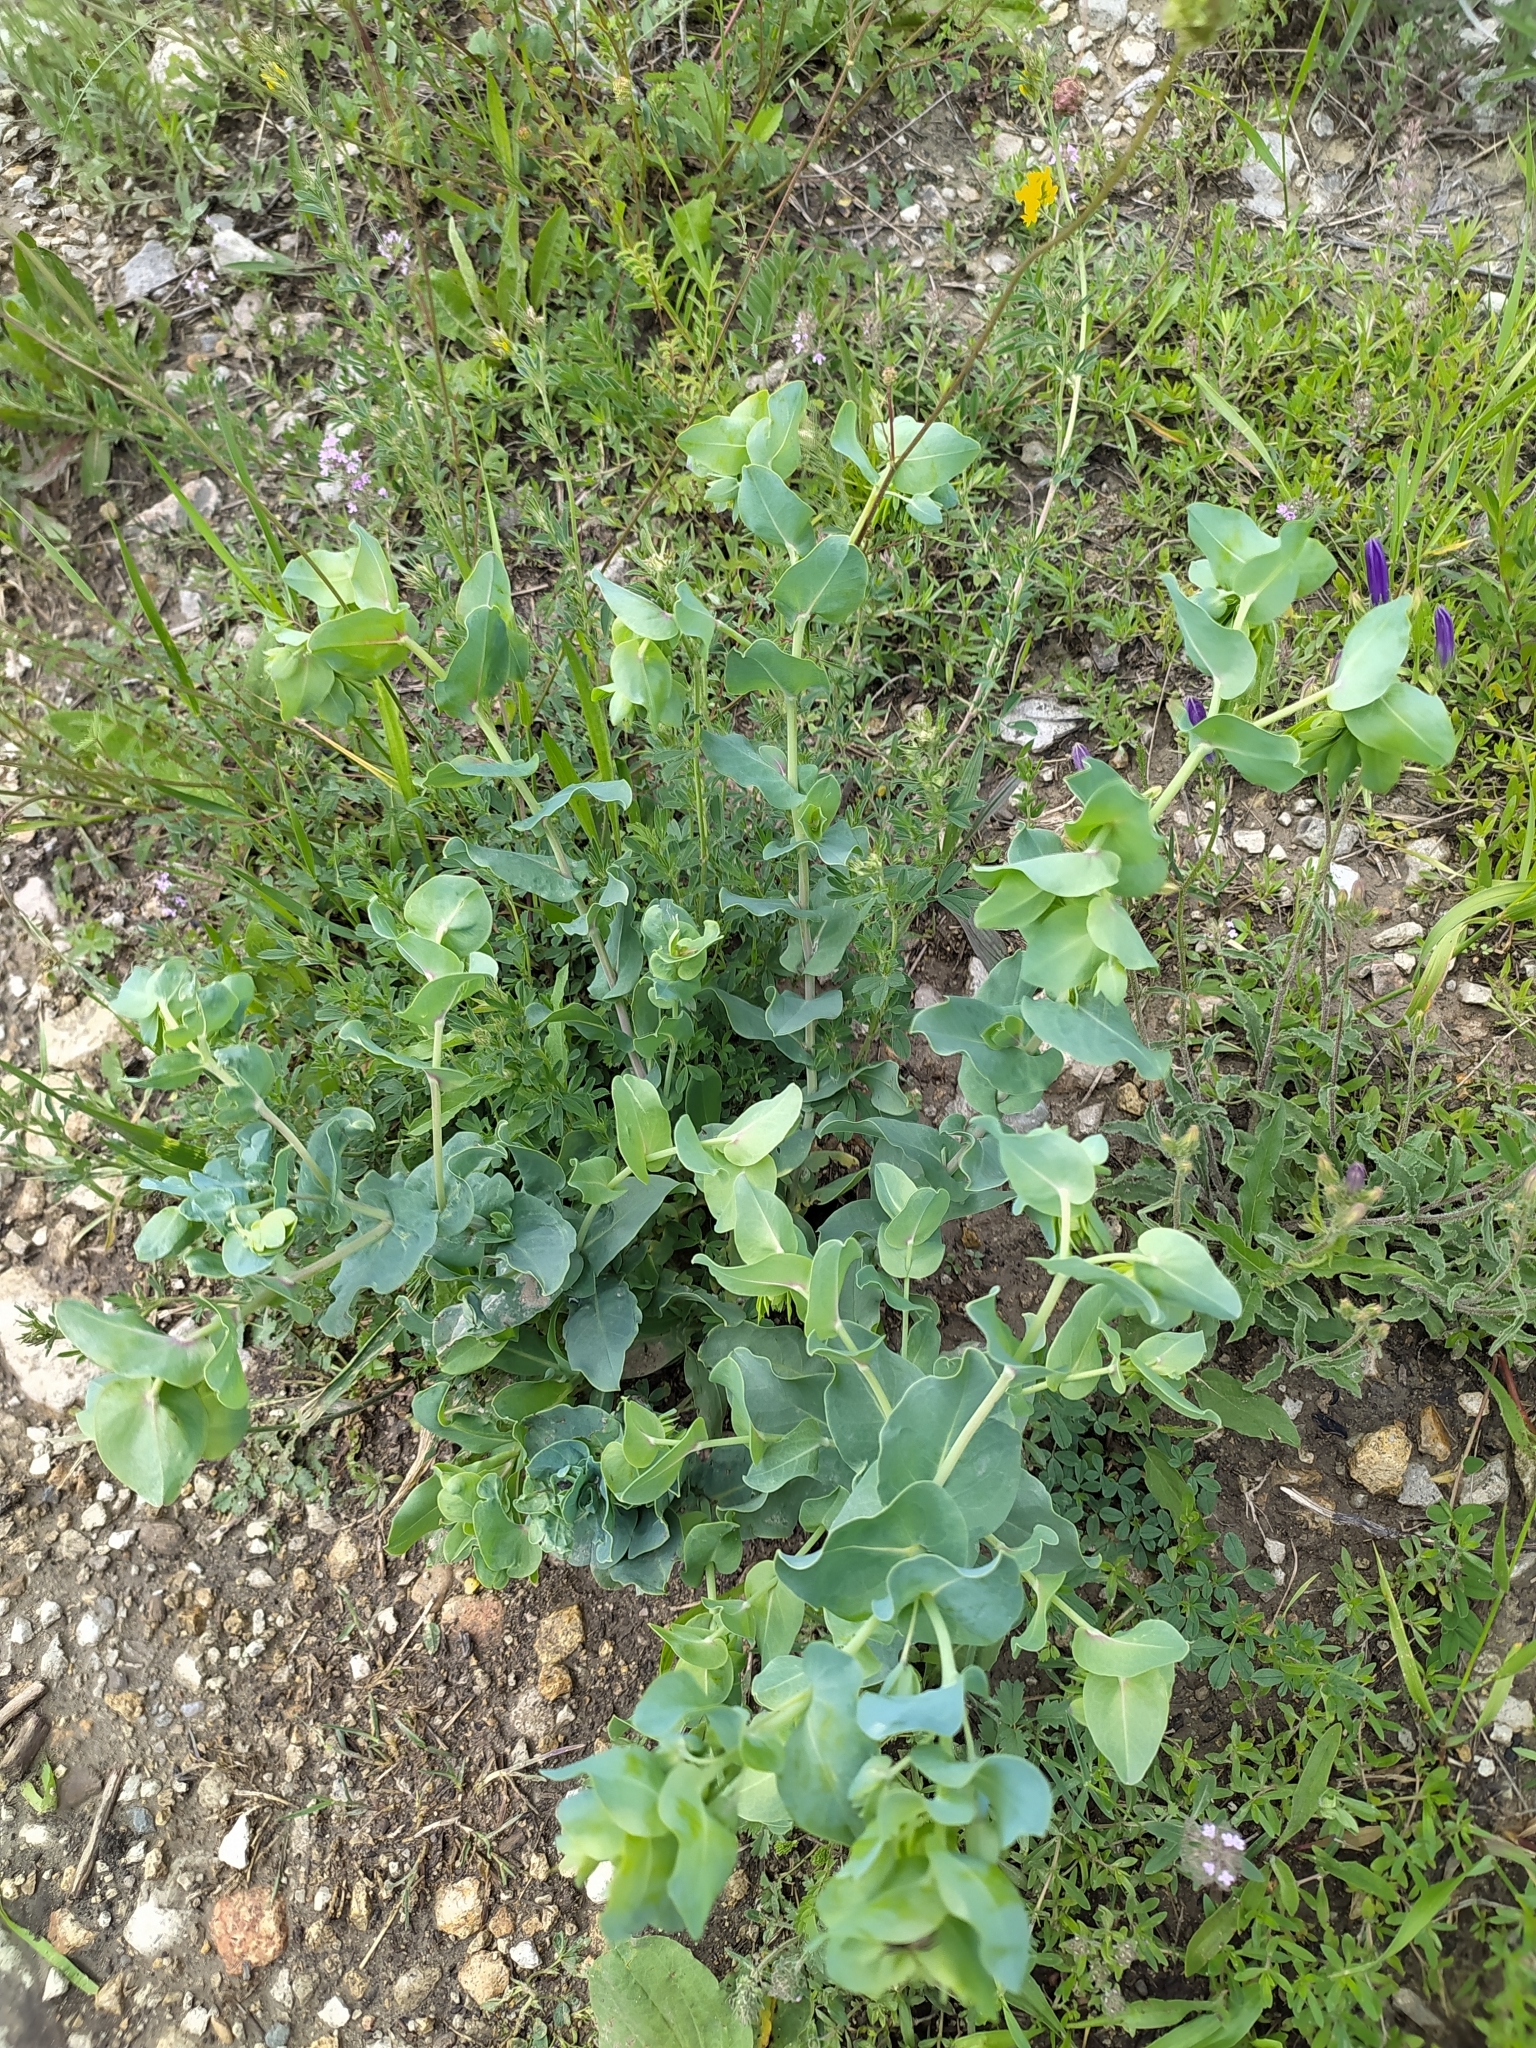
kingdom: Plantae
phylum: Tracheophyta
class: Magnoliopsida
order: Boraginales
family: Boraginaceae
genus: Cerinthe
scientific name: Cerinthe minor
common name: Lesser honeywort
